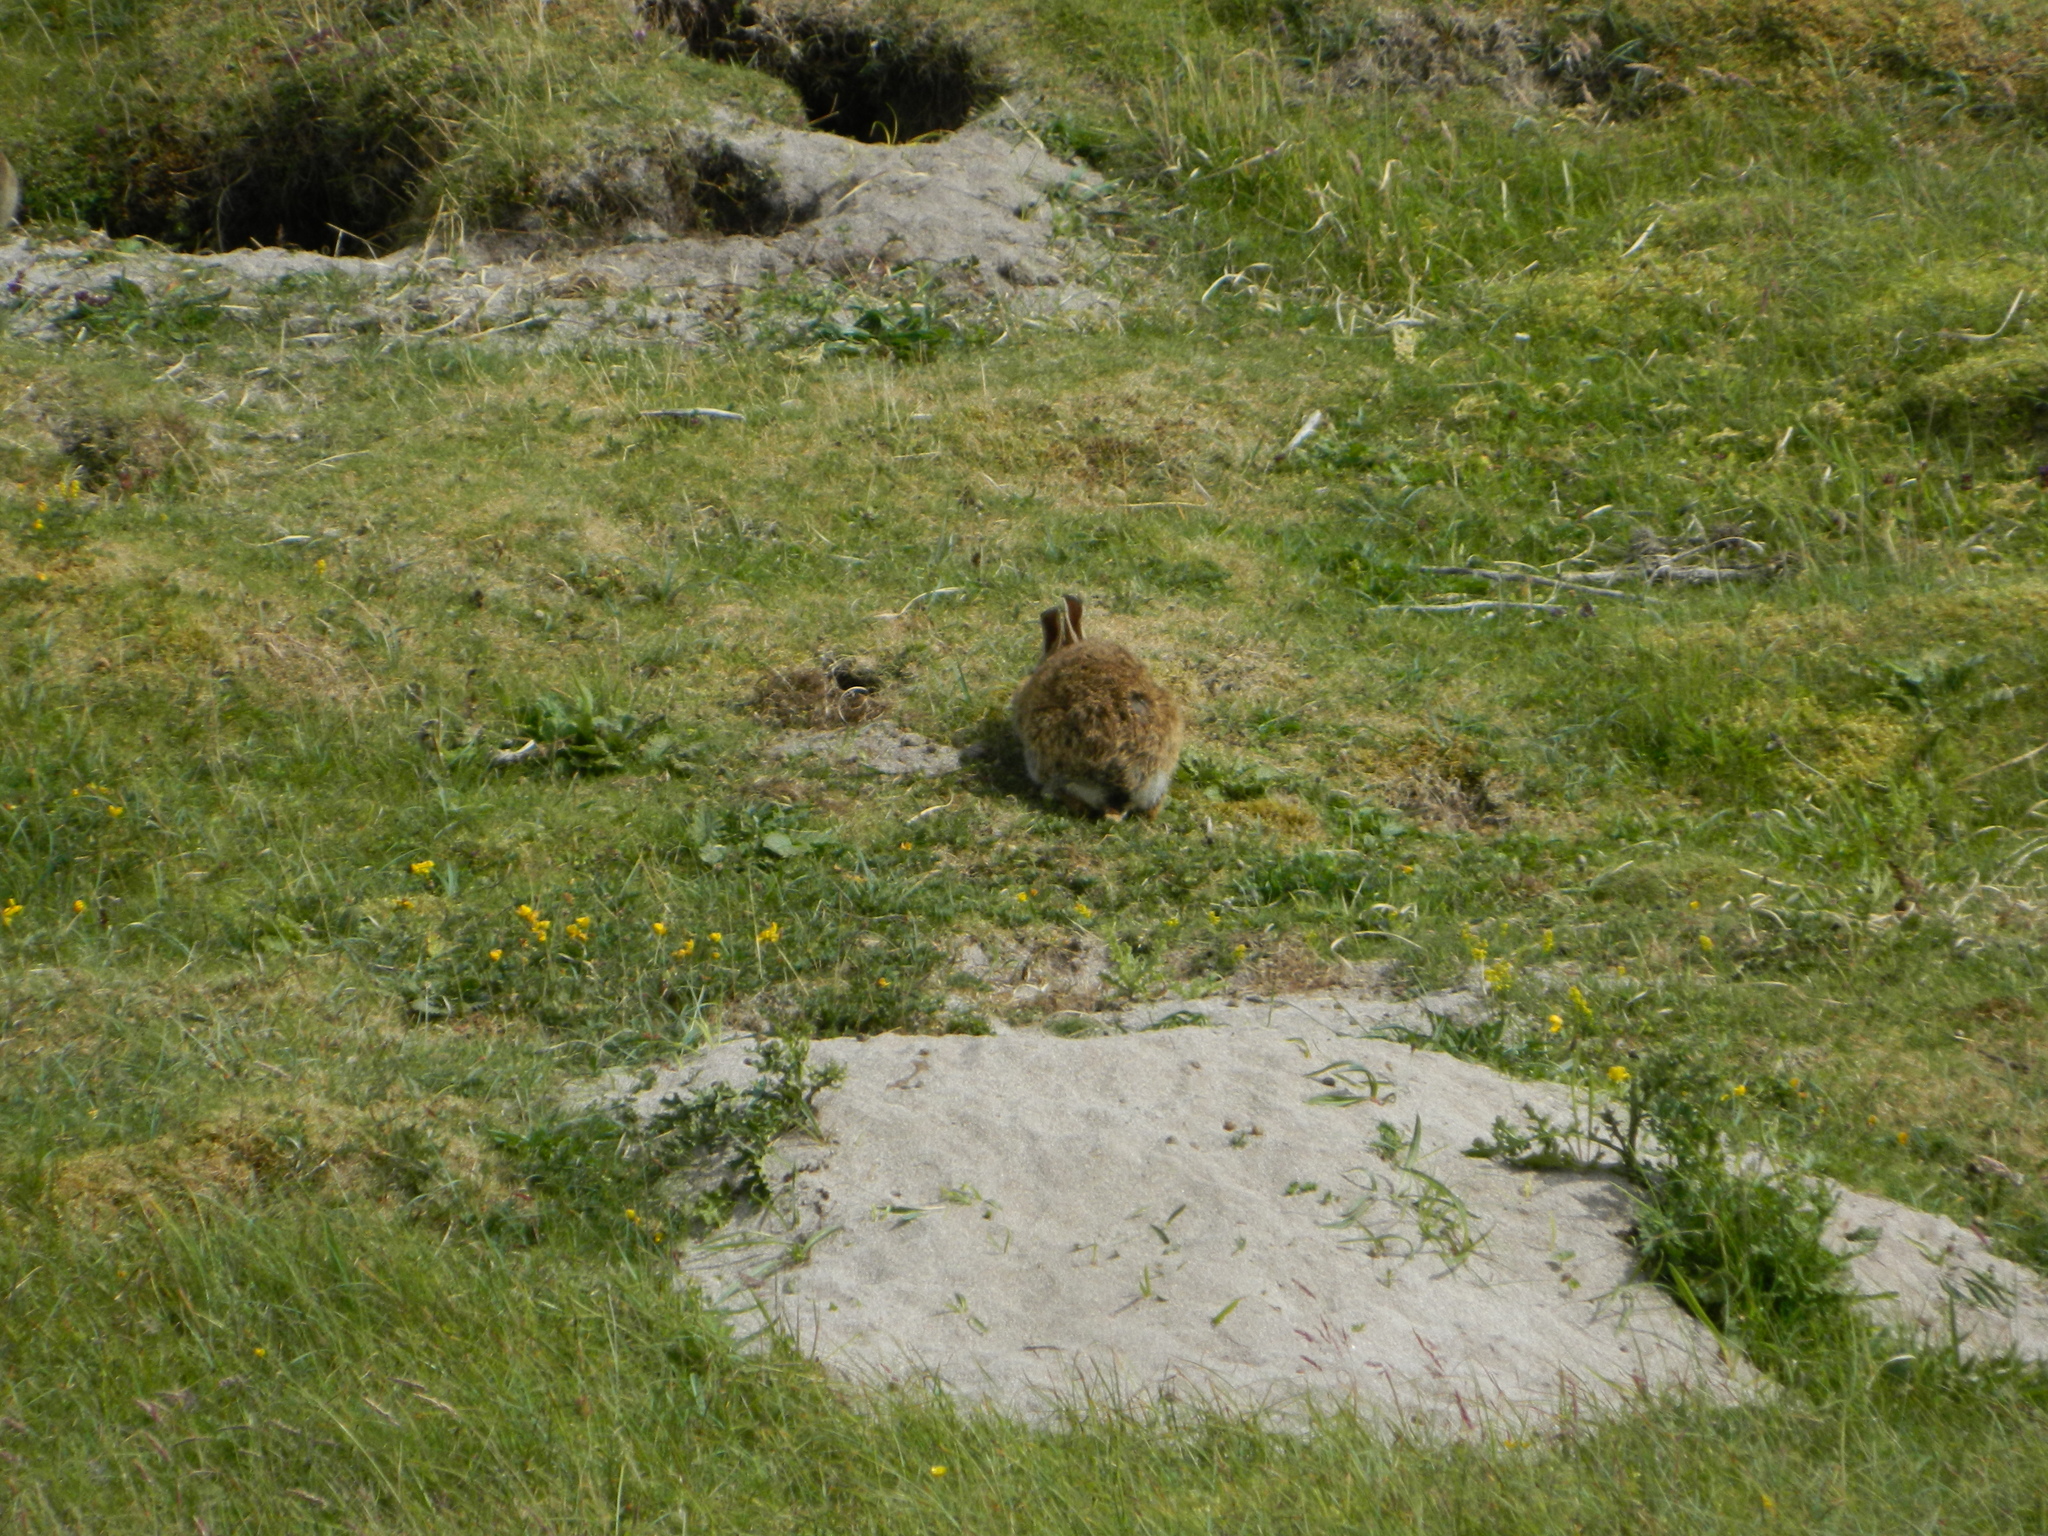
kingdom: Animalia
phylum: Chordata
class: Mammalia
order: Lagomorpha
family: Leporidae
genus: Oryctolagus
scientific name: Oryctolagus cuniculus
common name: European rabbit
